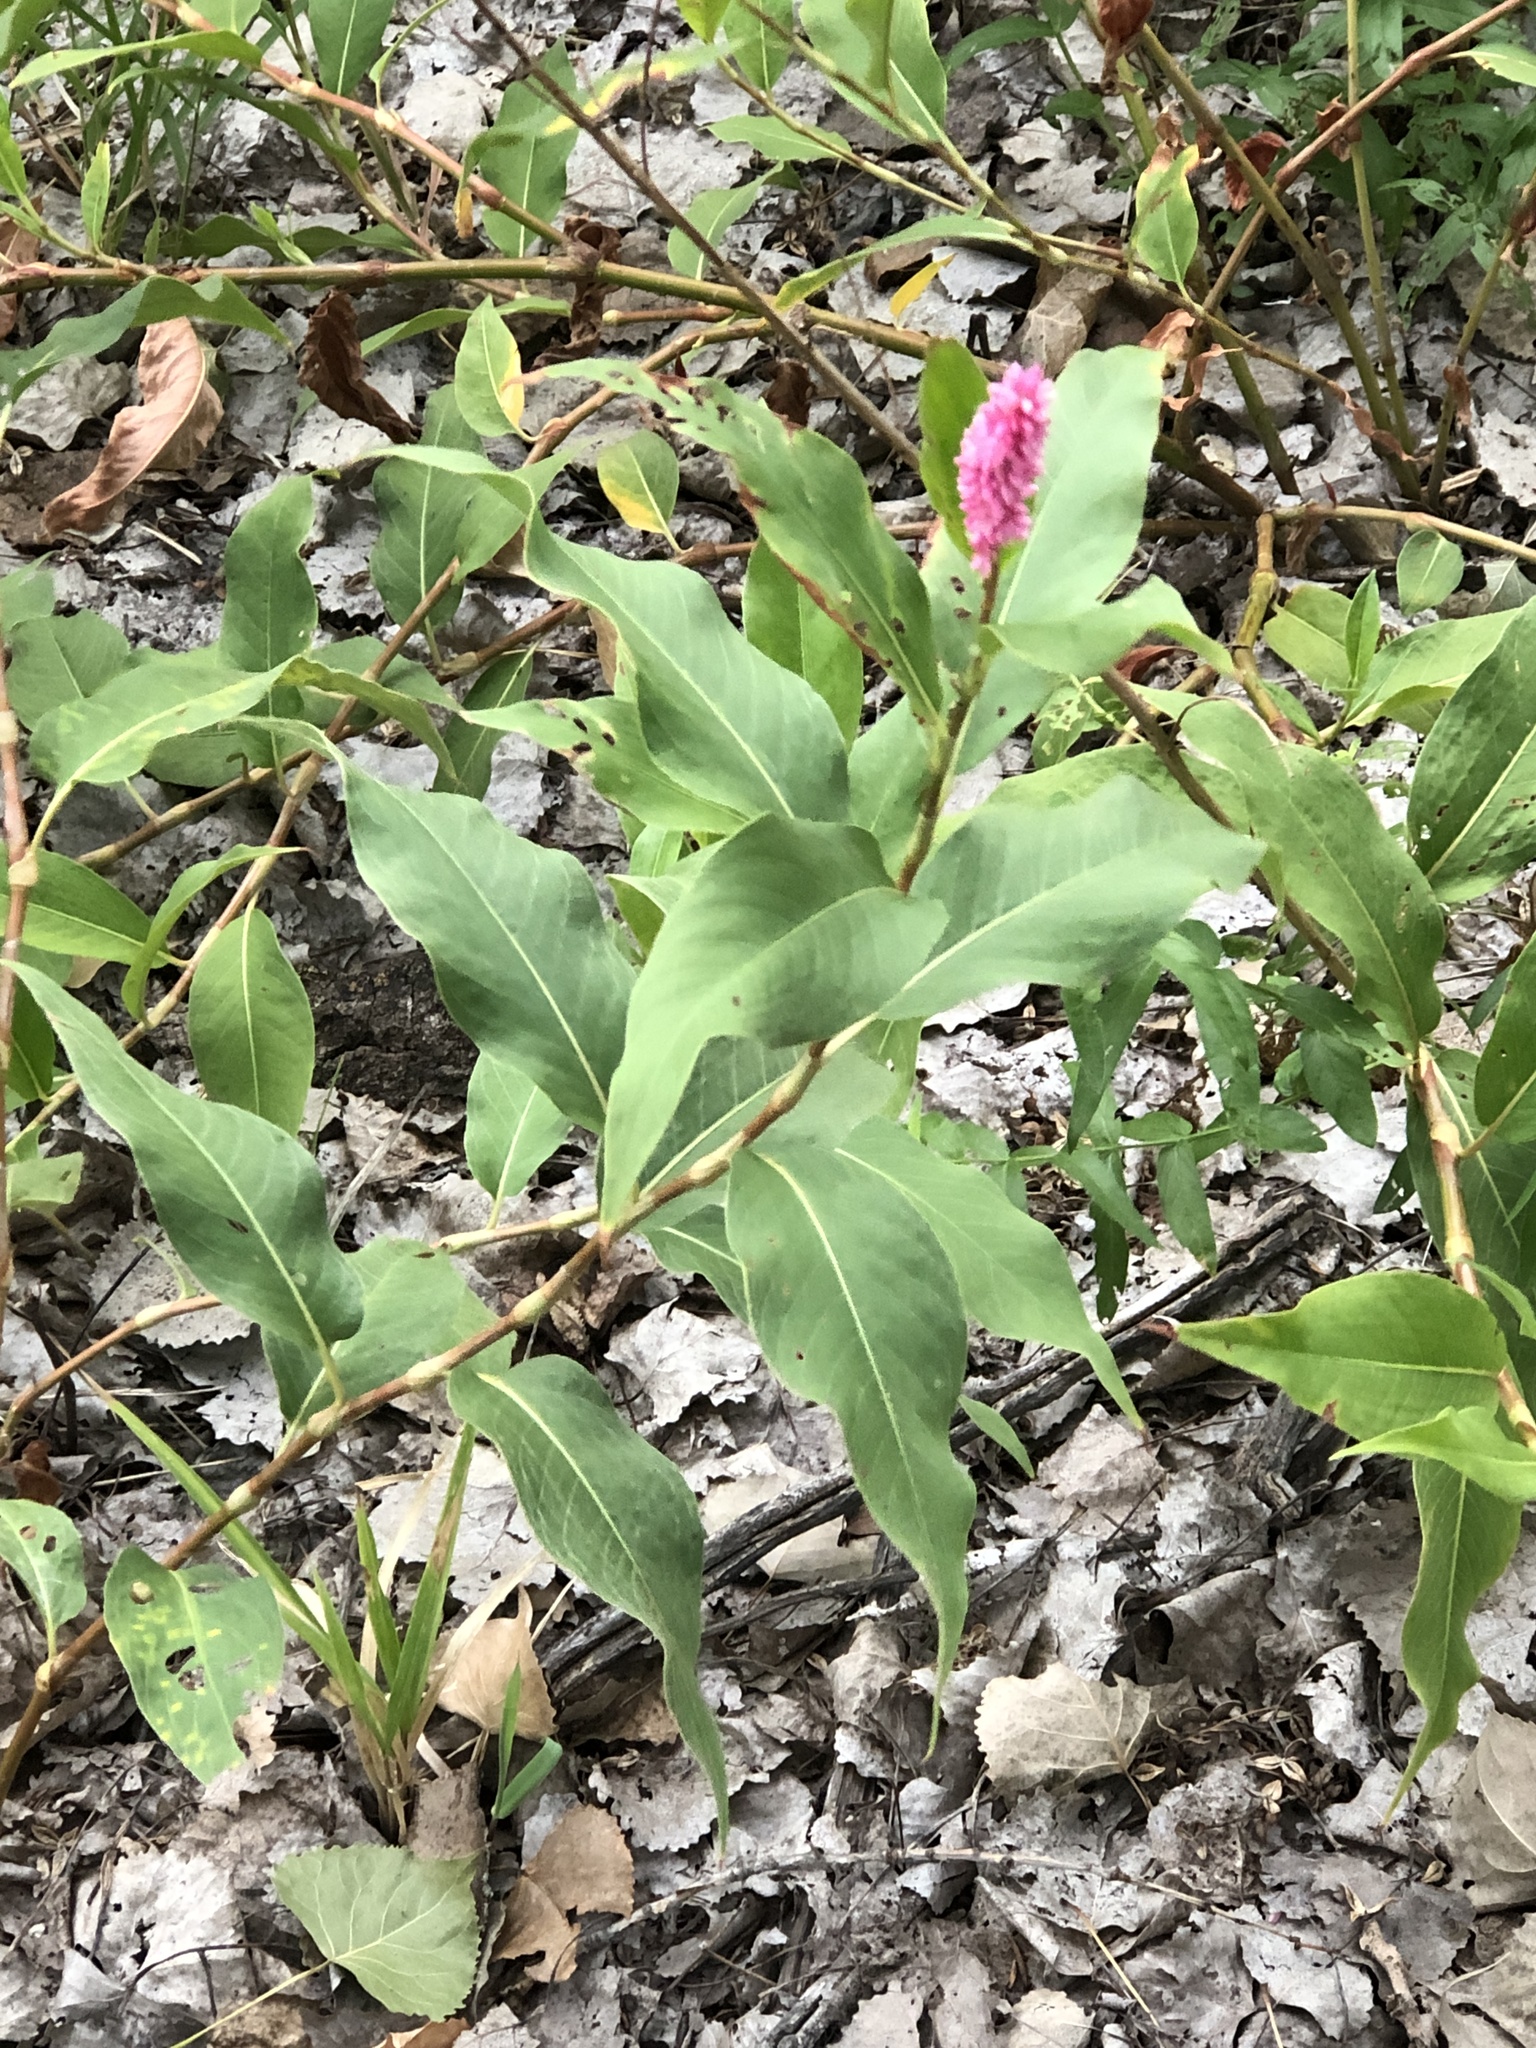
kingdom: Plantae
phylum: Tracheophyta
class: Magnoliopsida
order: Caryophyllales
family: Polygonaceae
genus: Persicaria
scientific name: Persicaria amphibia
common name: Amphibious bistort
